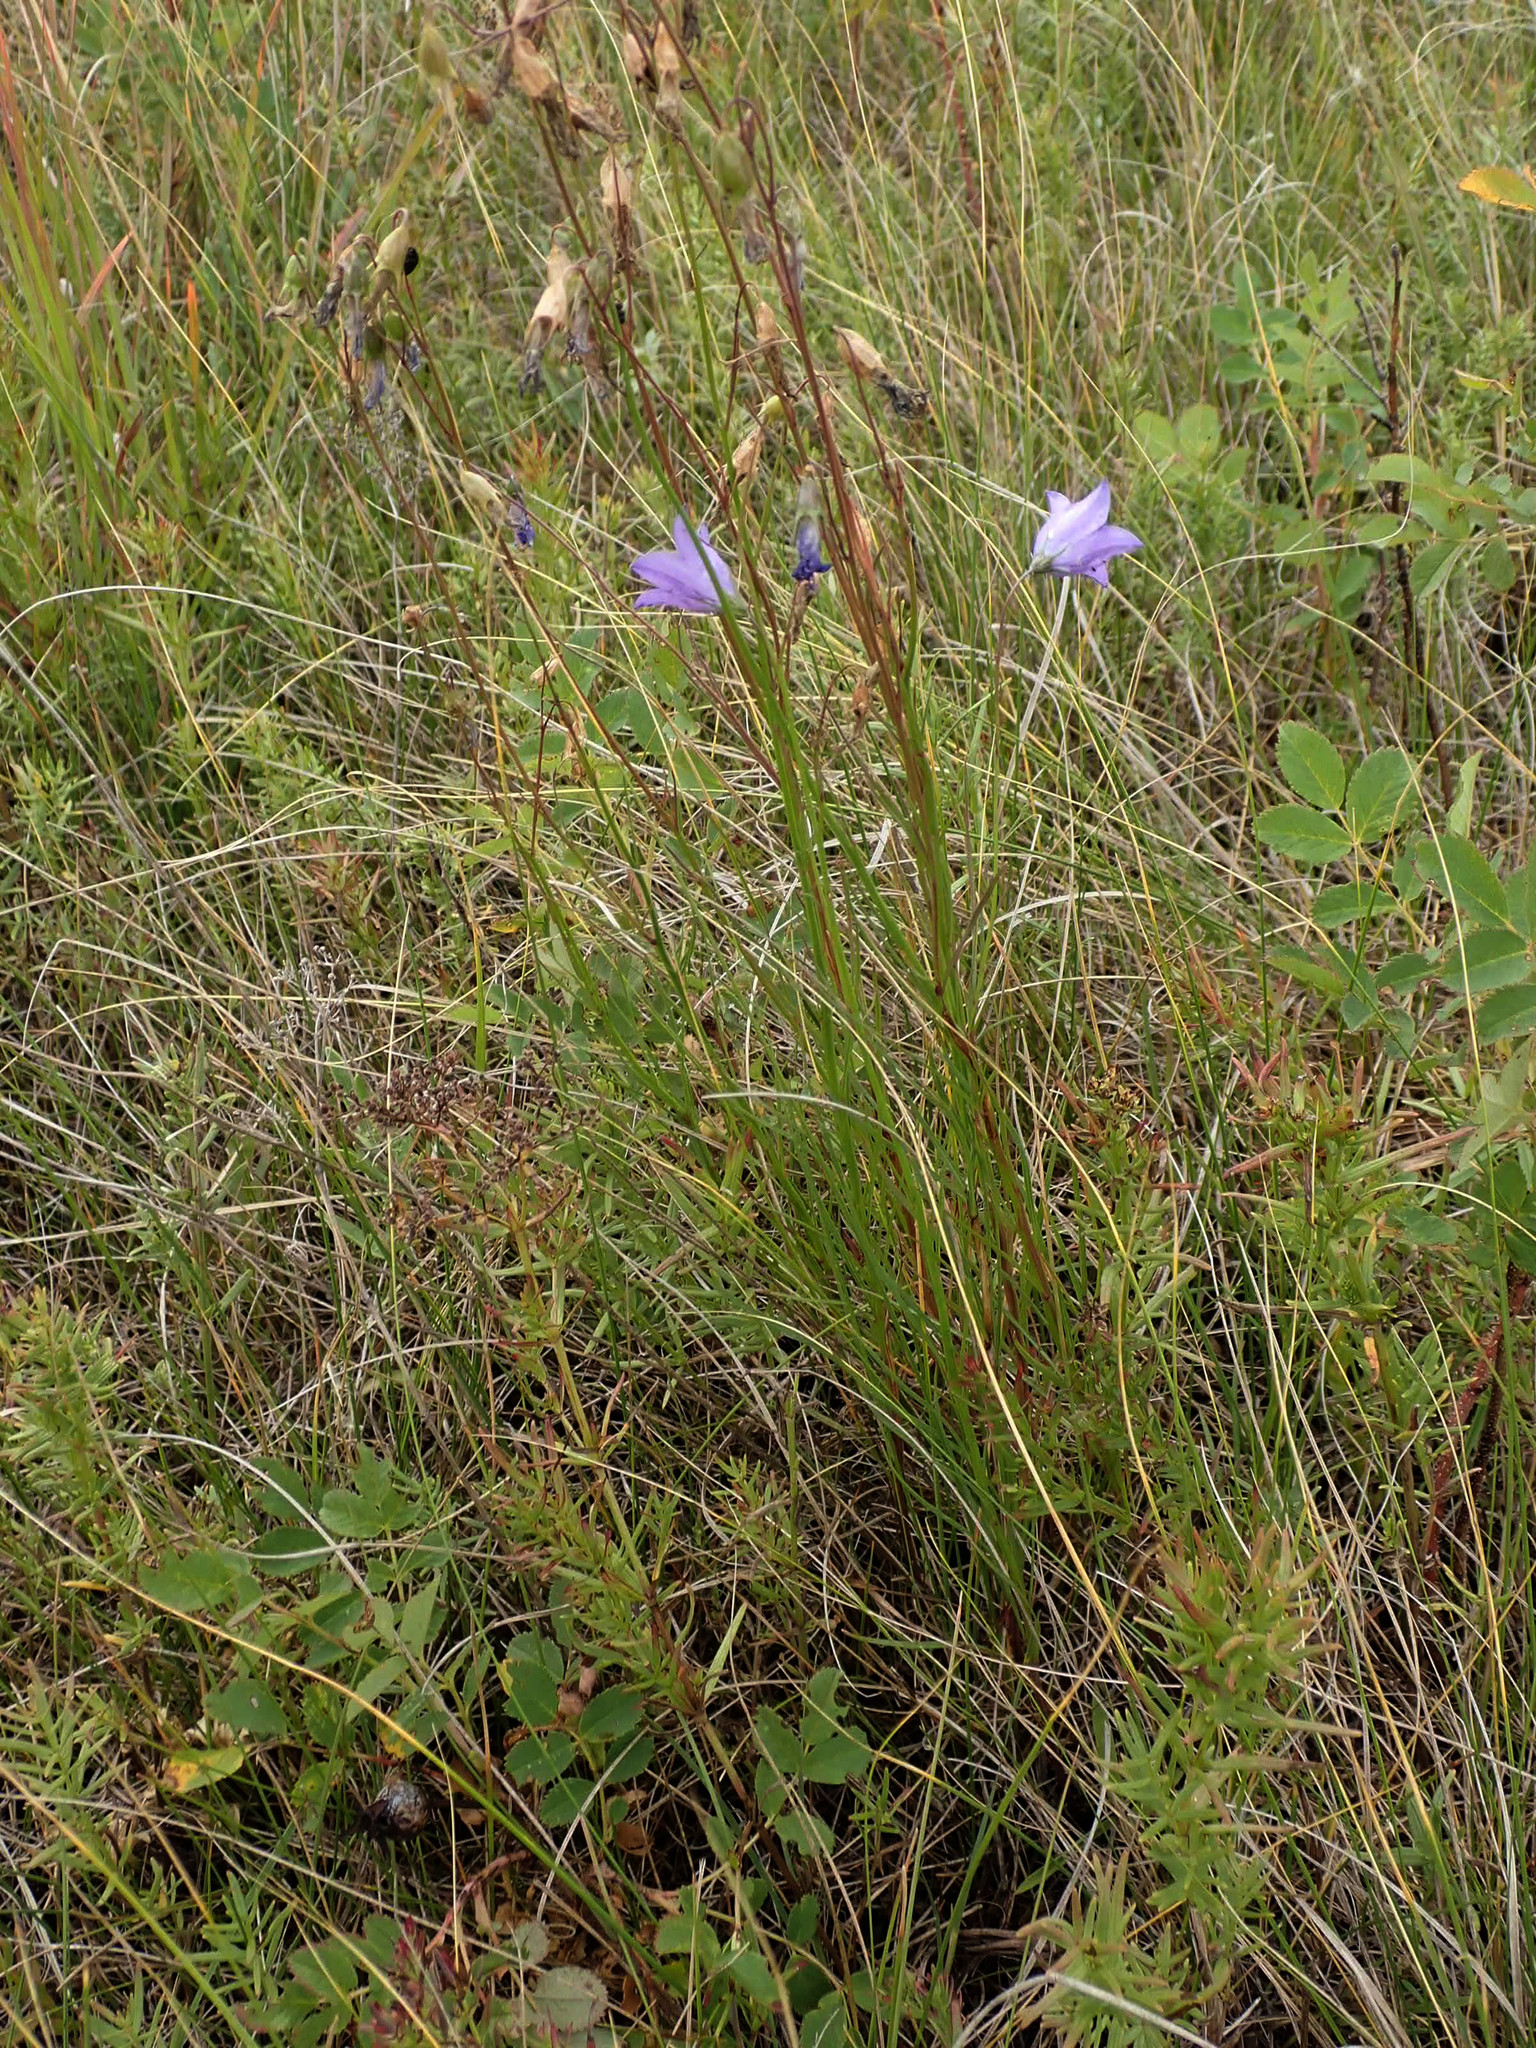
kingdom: Plantae
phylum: Tracheophyta
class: Magnoliopsida
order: Asterales
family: Campanulaceae
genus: Campanula
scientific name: Campanula petiolata
